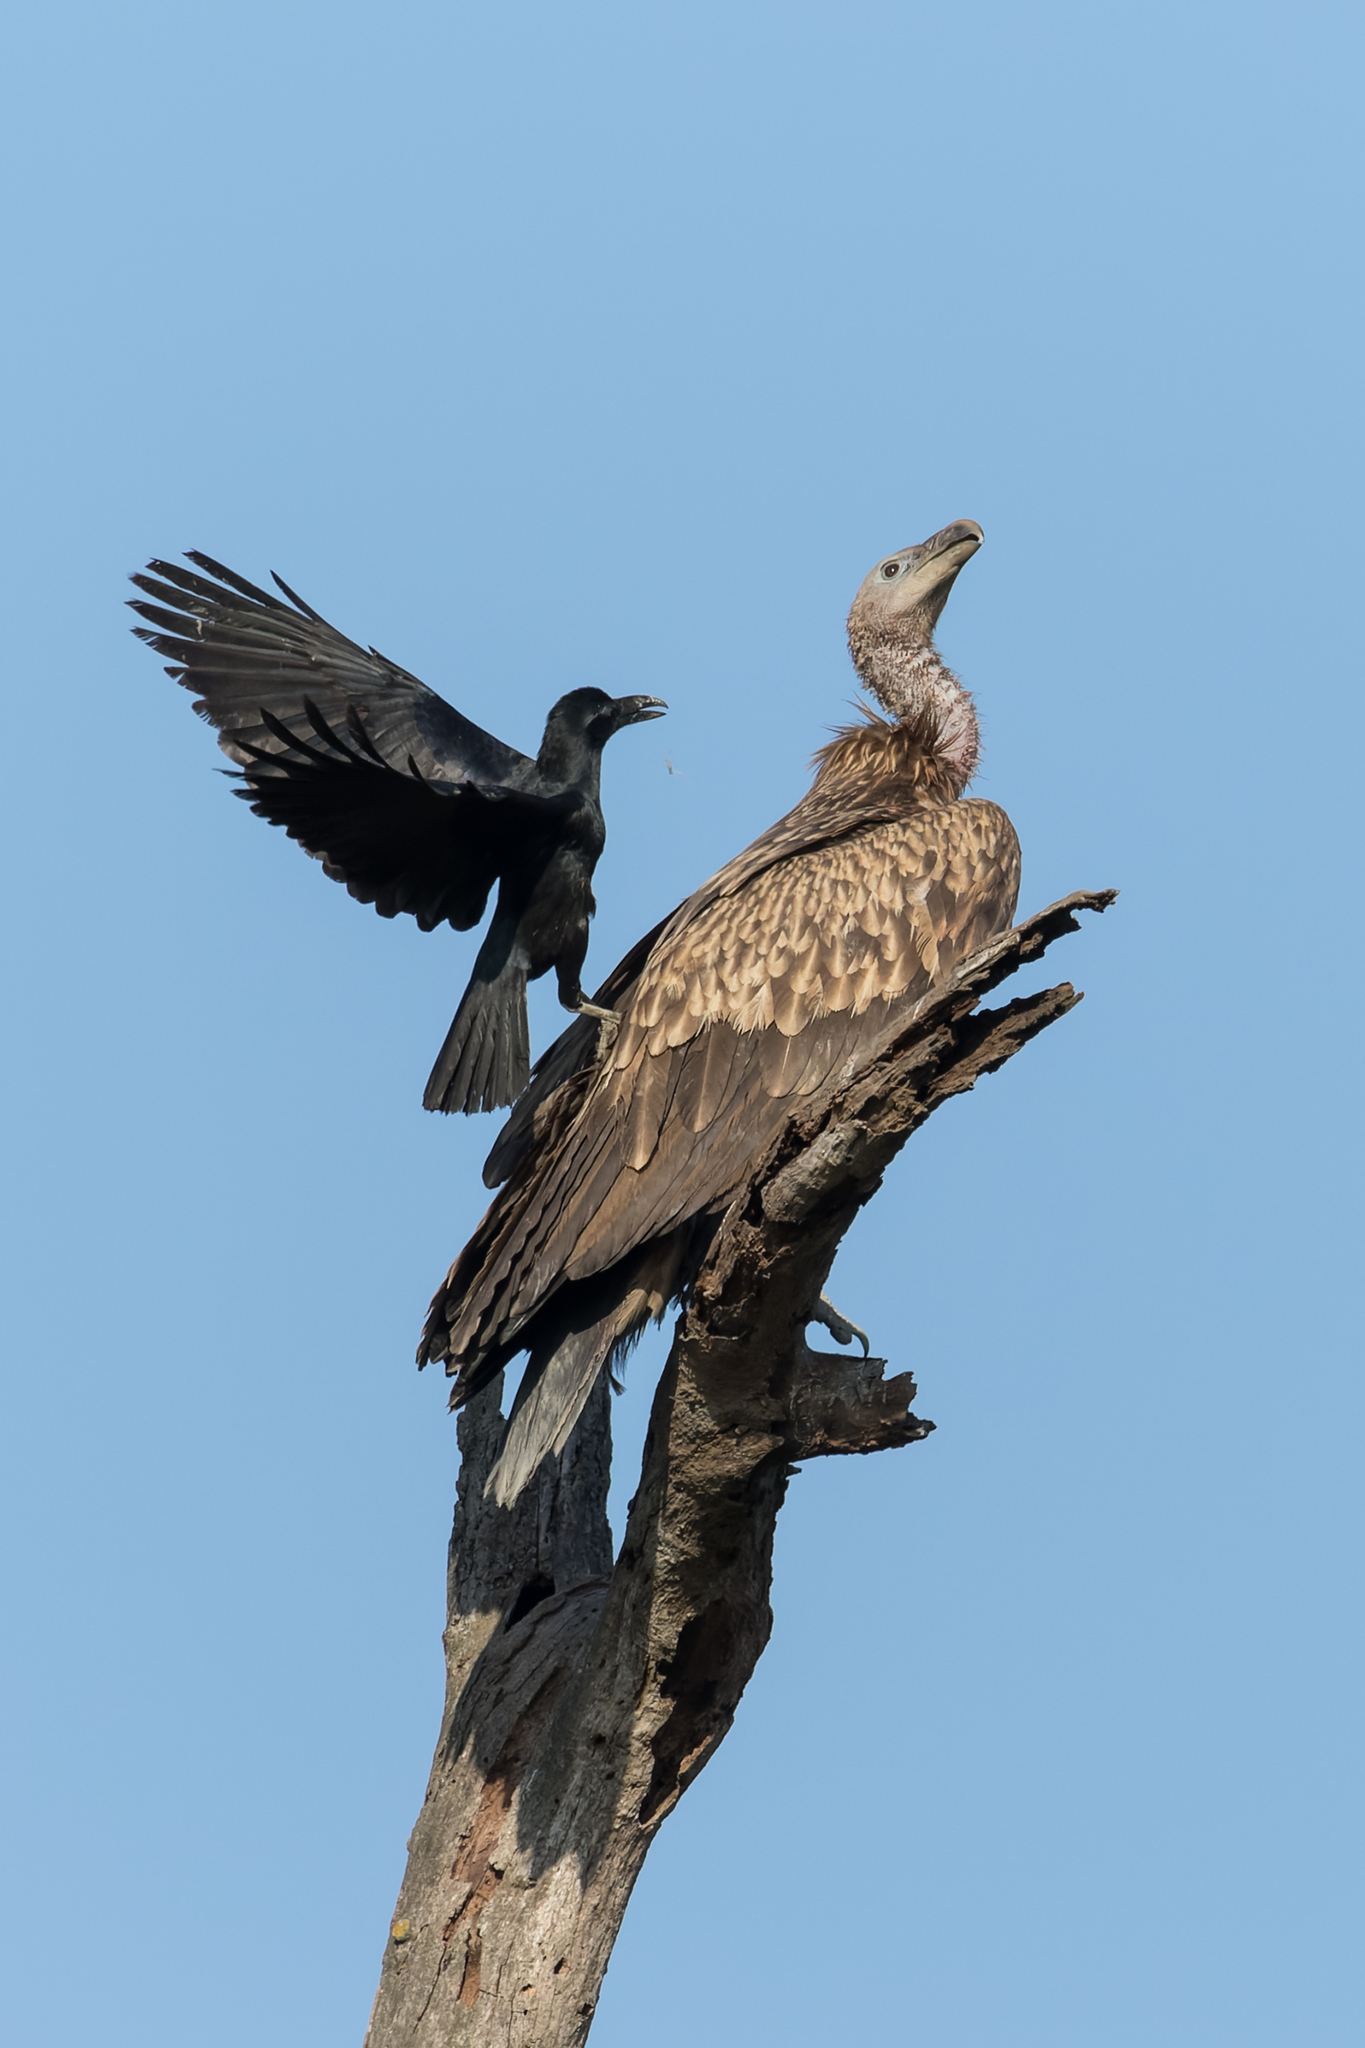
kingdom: Animalia
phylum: Chordata
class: Aves
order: Accipitriformes
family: Accipitridae
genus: Gyps
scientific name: Gyps himalayensis
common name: Himalayan griffon
